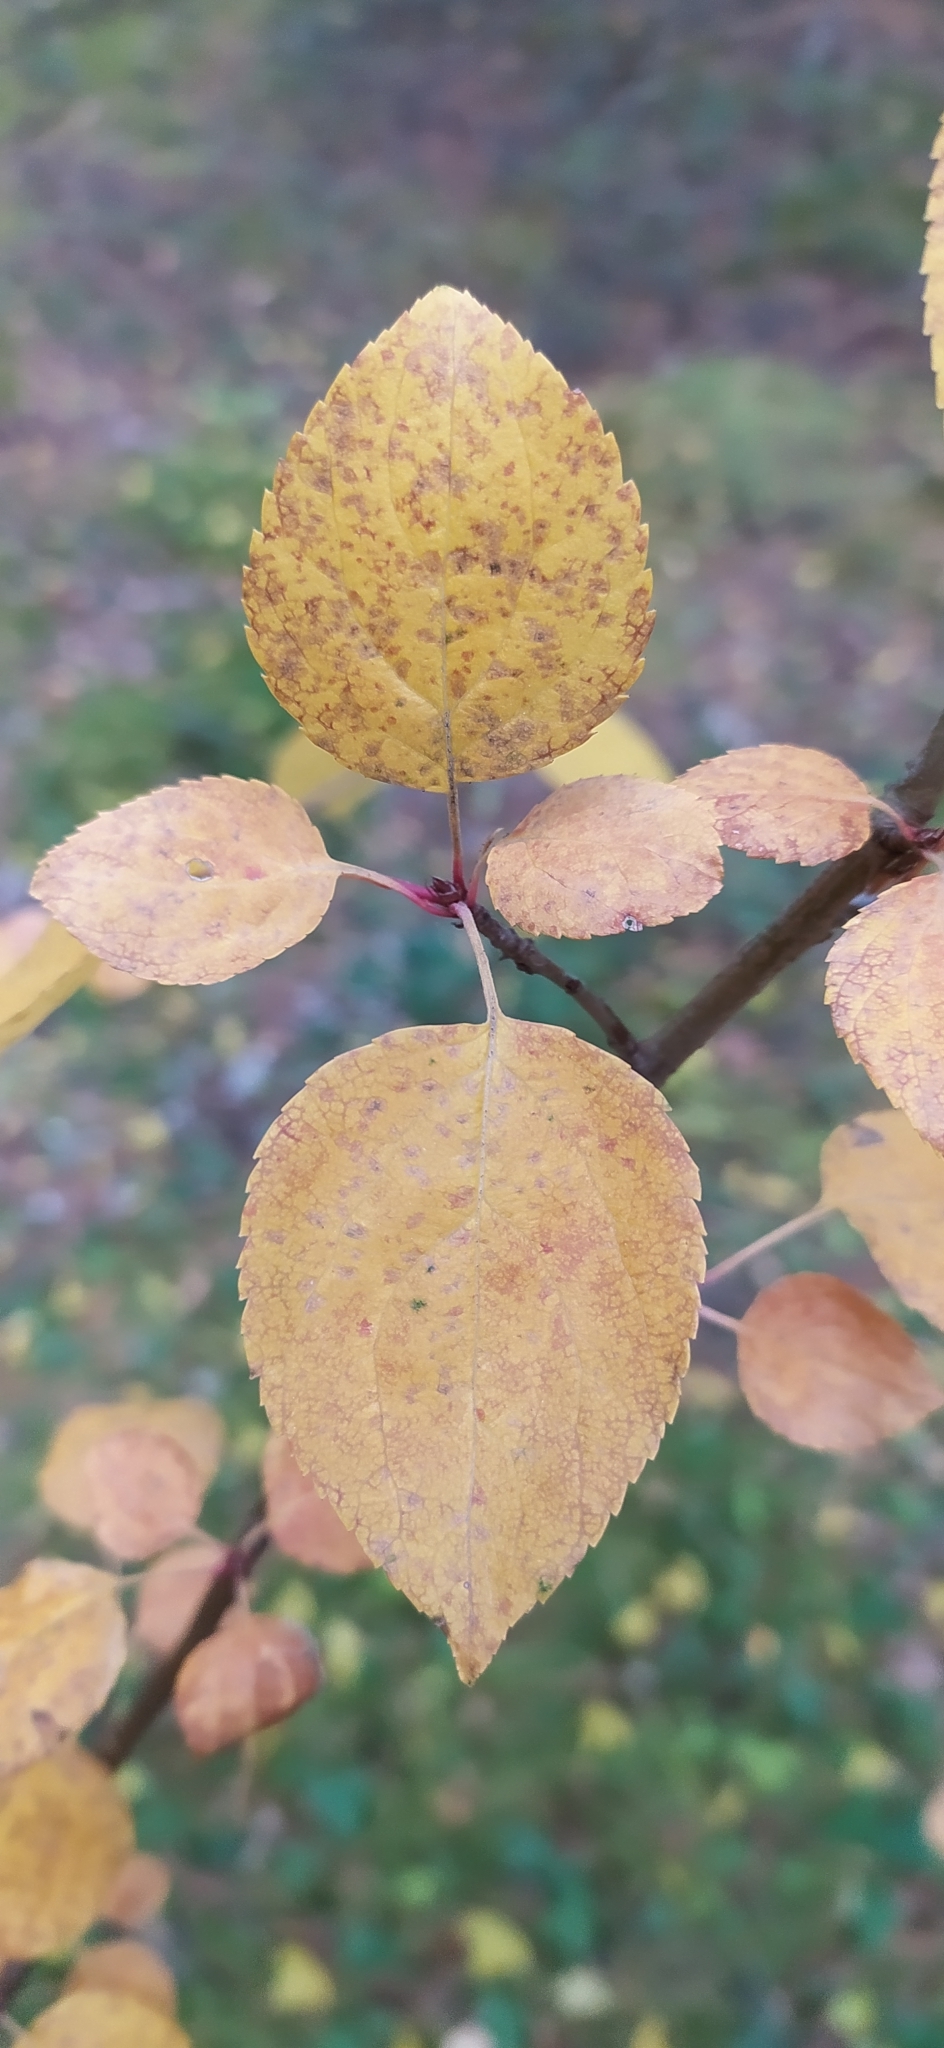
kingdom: Plantae
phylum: Tracheophyta
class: Magnoliopsida
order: Rosales
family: Rosaceae
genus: Malus
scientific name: Malus baccata
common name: Siberian crab
